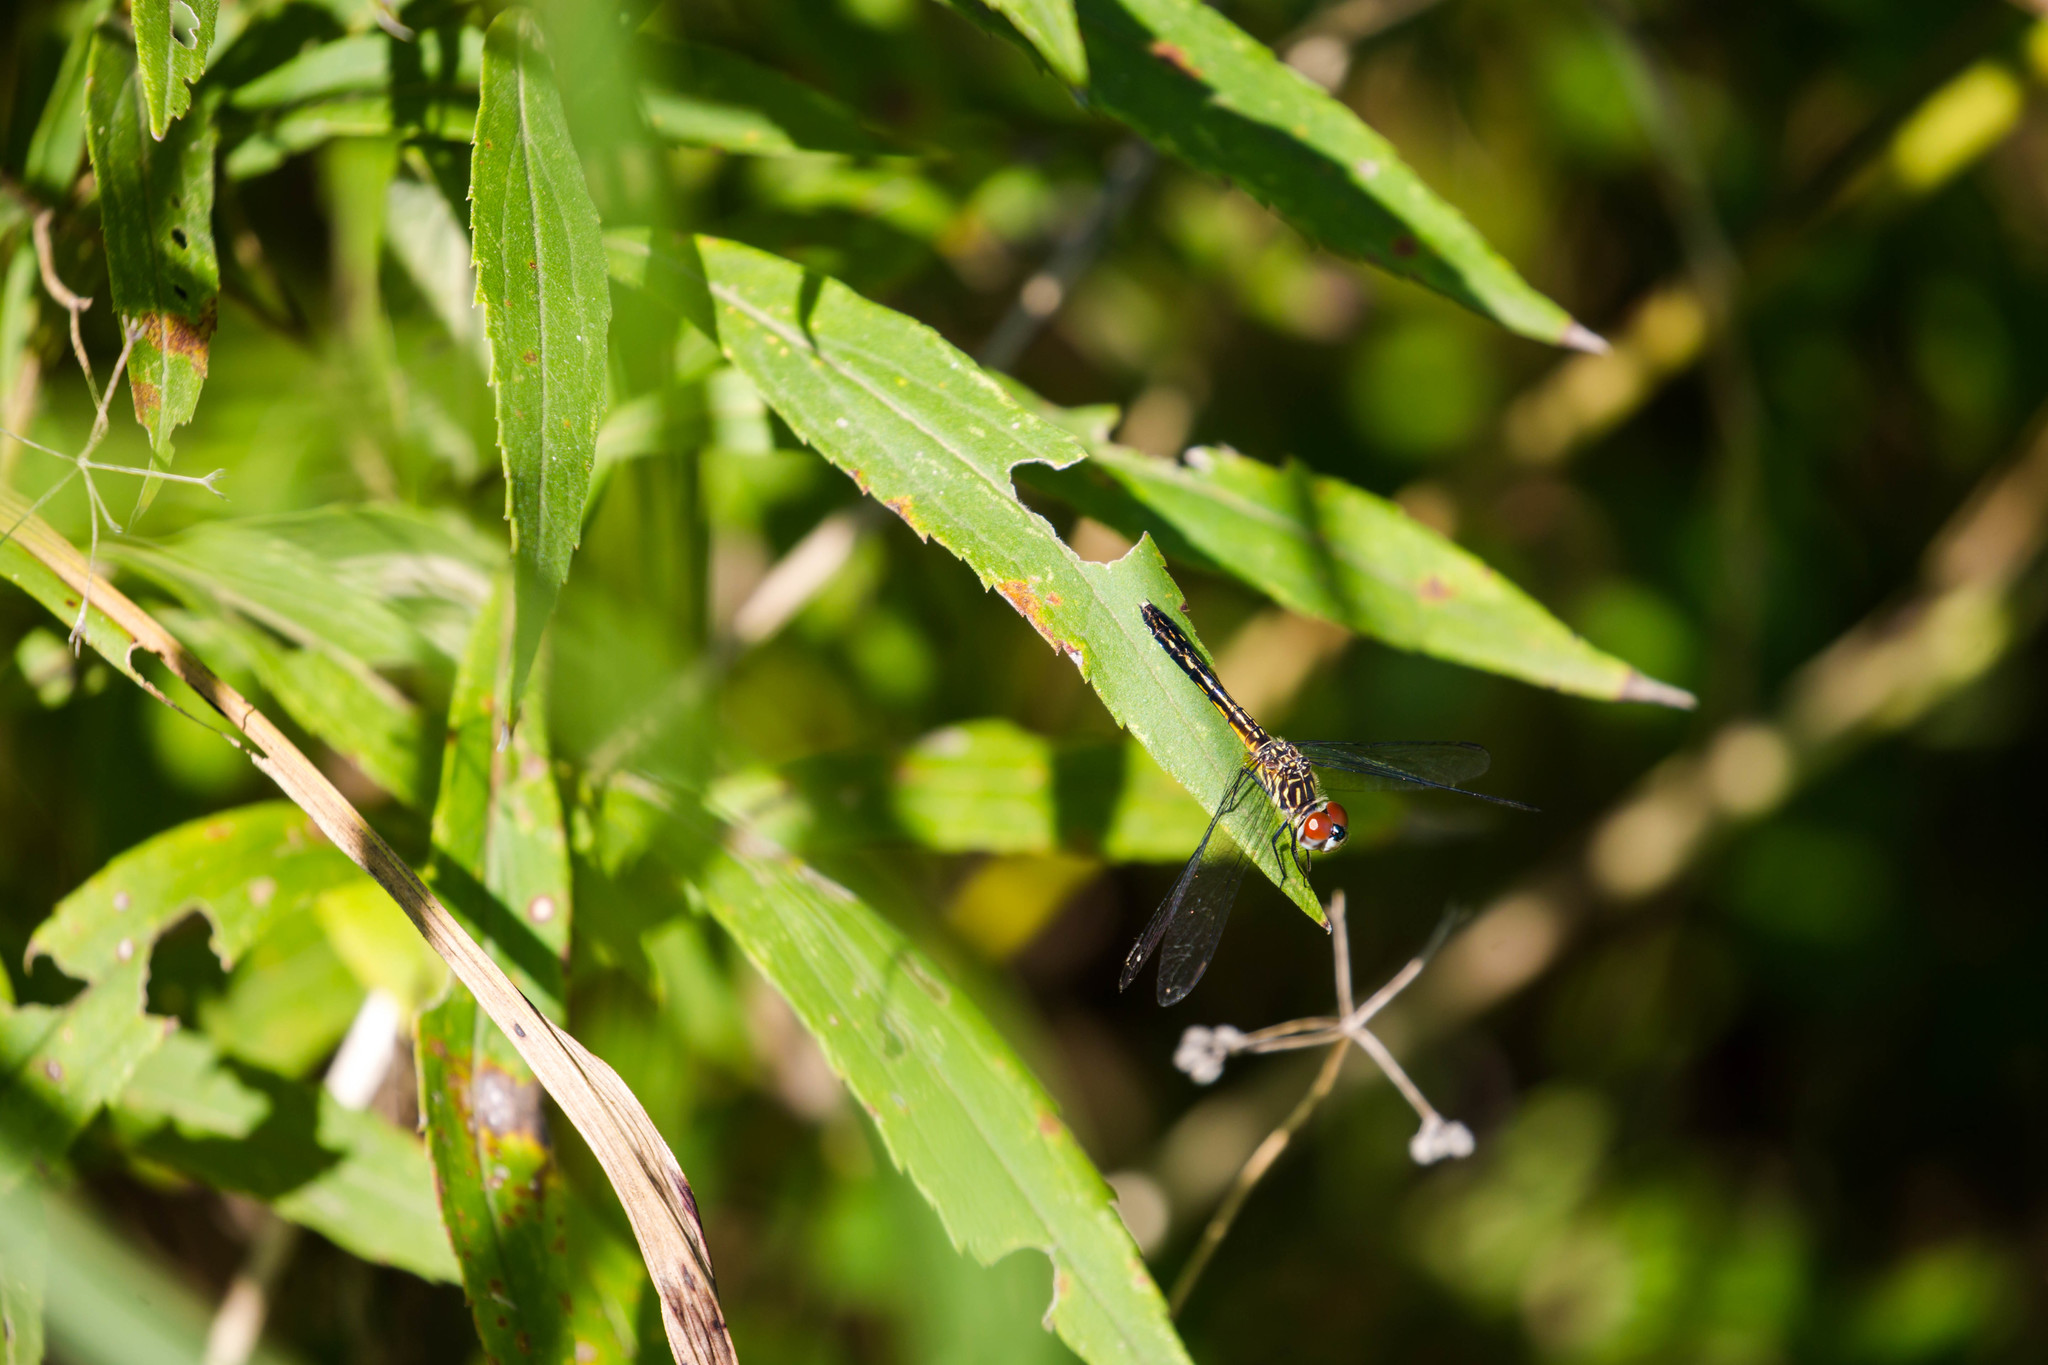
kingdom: Animalia
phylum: Arthropoda
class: Insecta
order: Odonata
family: Libellulidae
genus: Pachydiplax
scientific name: Pachydiplax longipennis
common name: Blue dasher
